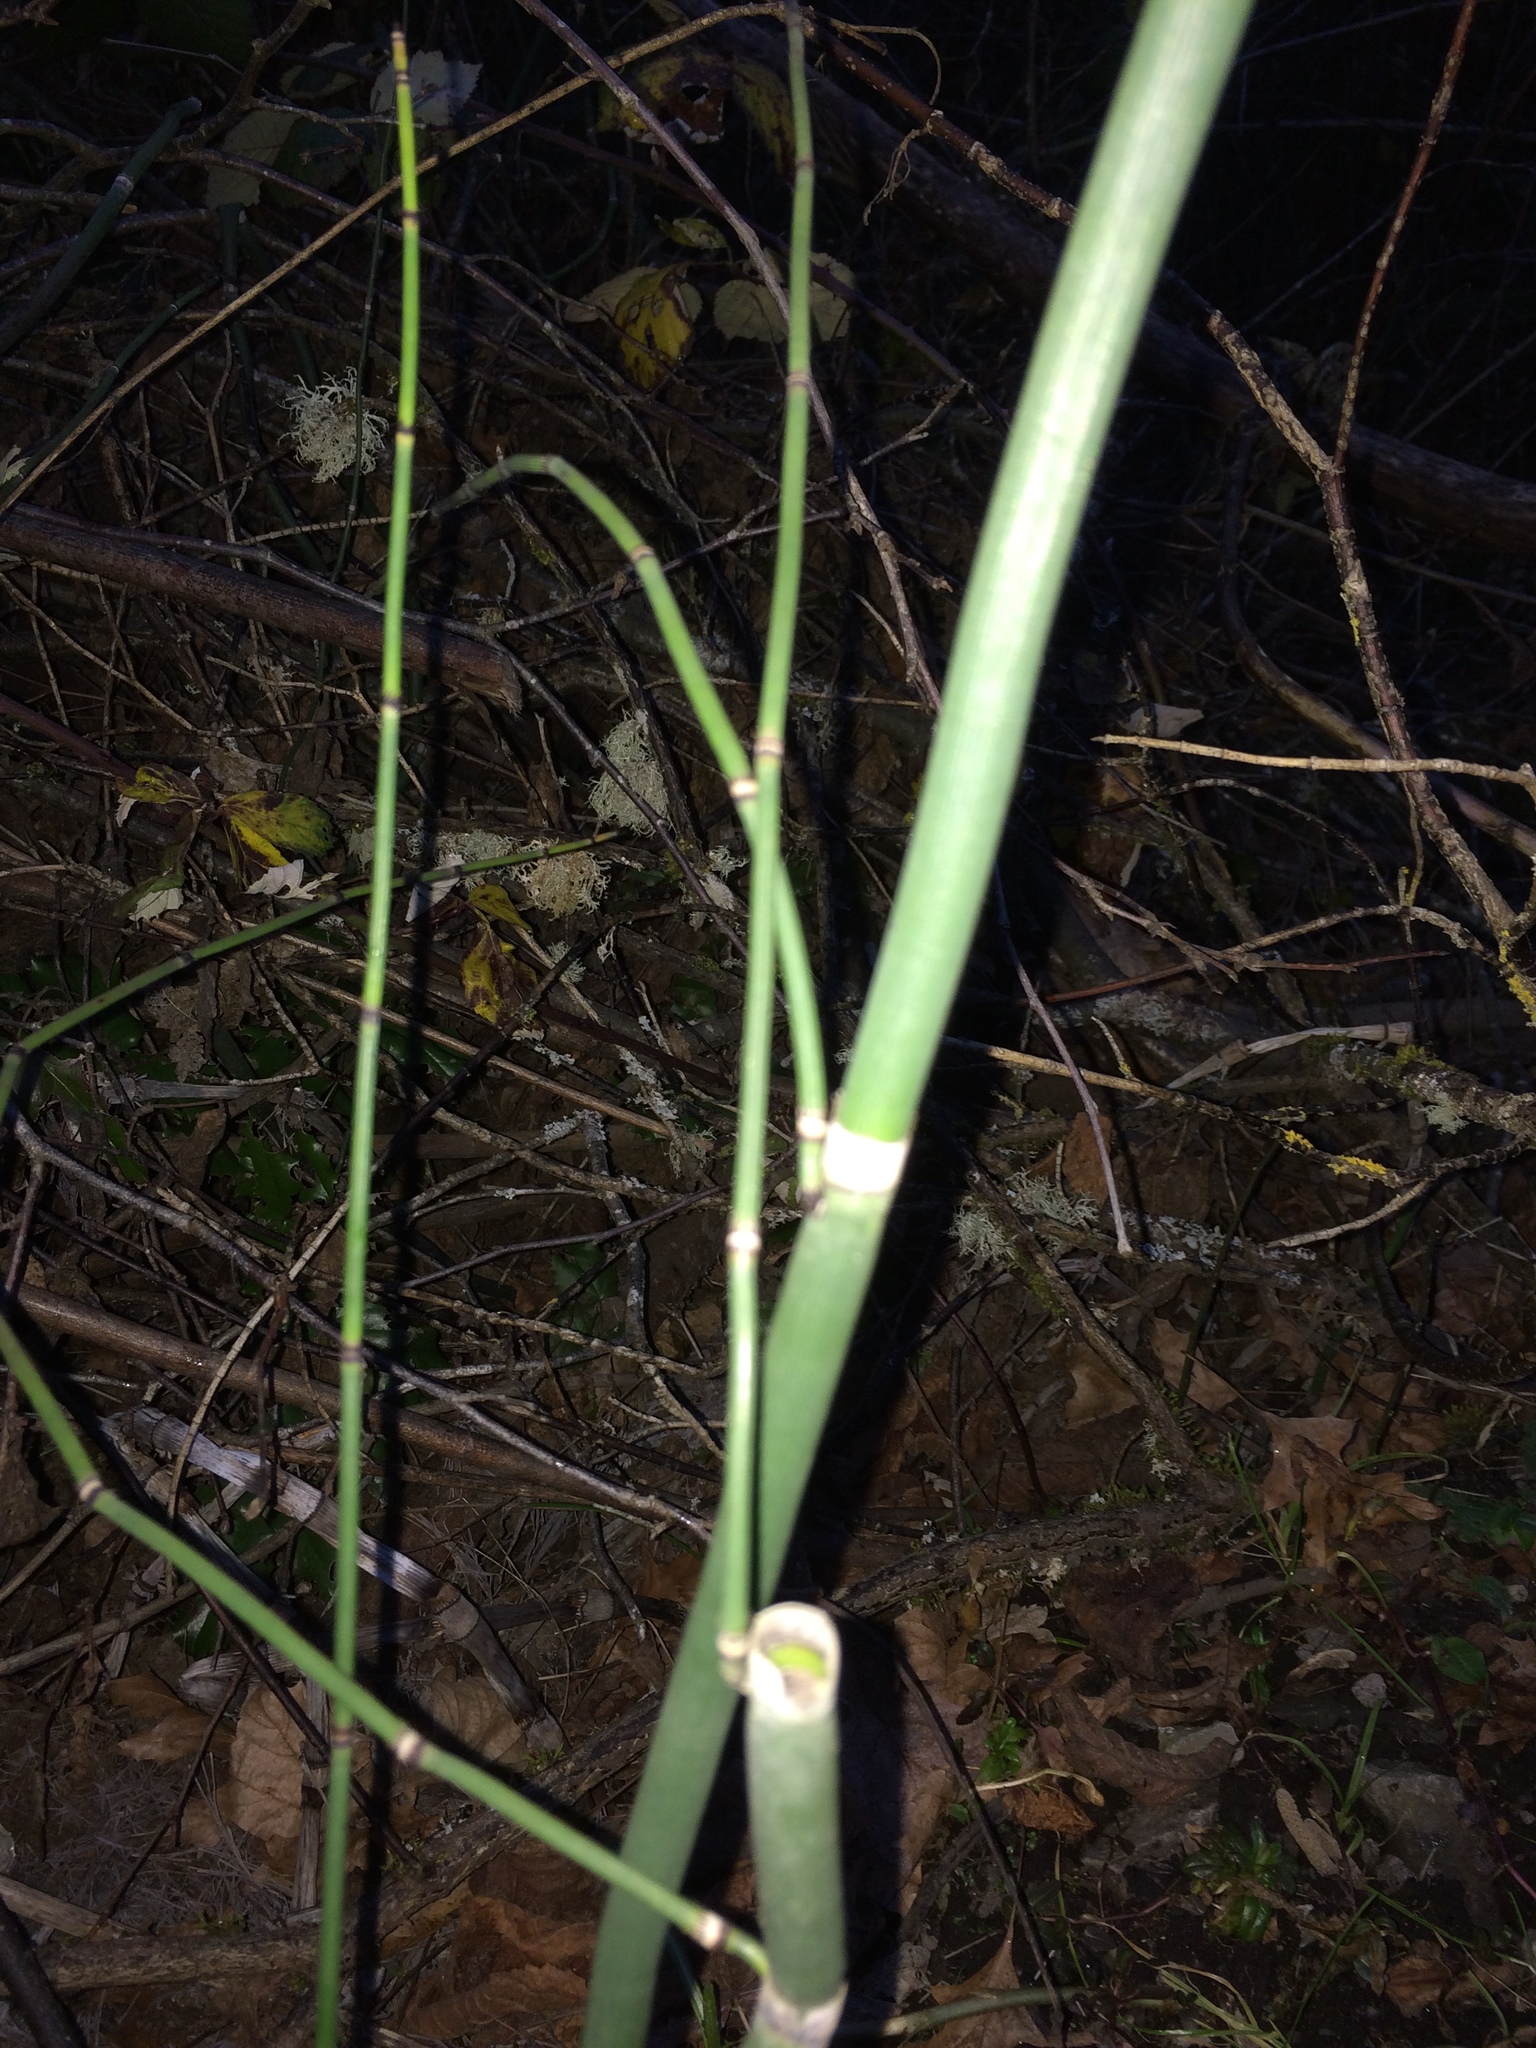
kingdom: Plantae
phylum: Tracheophyta
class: Polypodiopsida
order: Equisetales
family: Equisetaceae
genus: Equisetum
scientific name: Equisetum hyemale
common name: Rough horsetail
